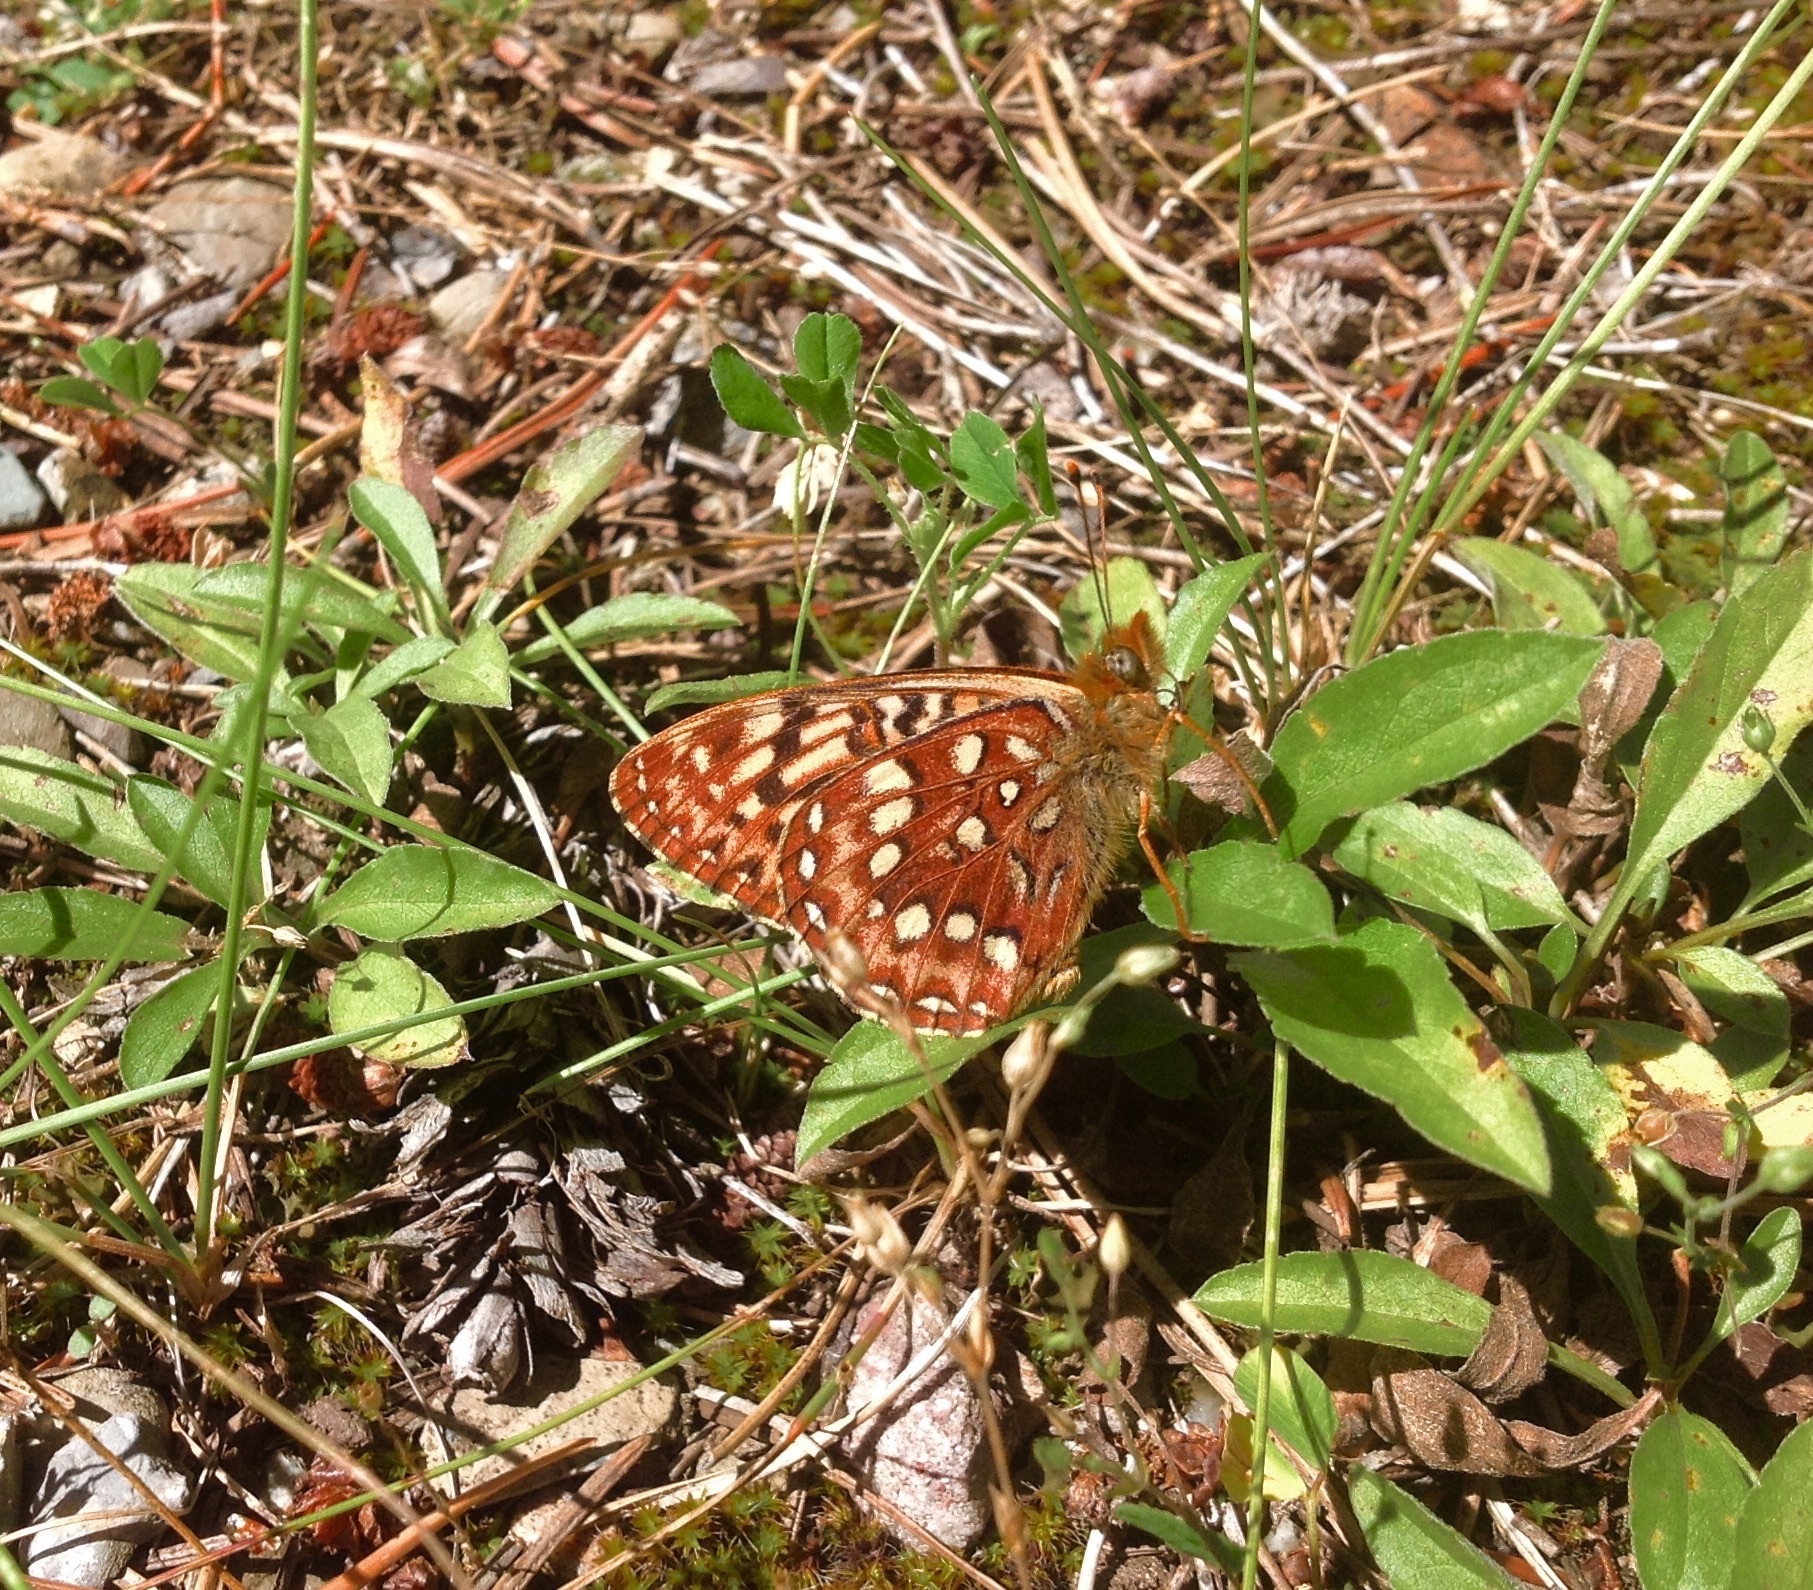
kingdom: Animalia
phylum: Arthropoda
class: Insecta
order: Lepidoptera
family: Nymphalidae
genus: Speyeria
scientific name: Speyeria hydaspe
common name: Hydaspe fritillary
